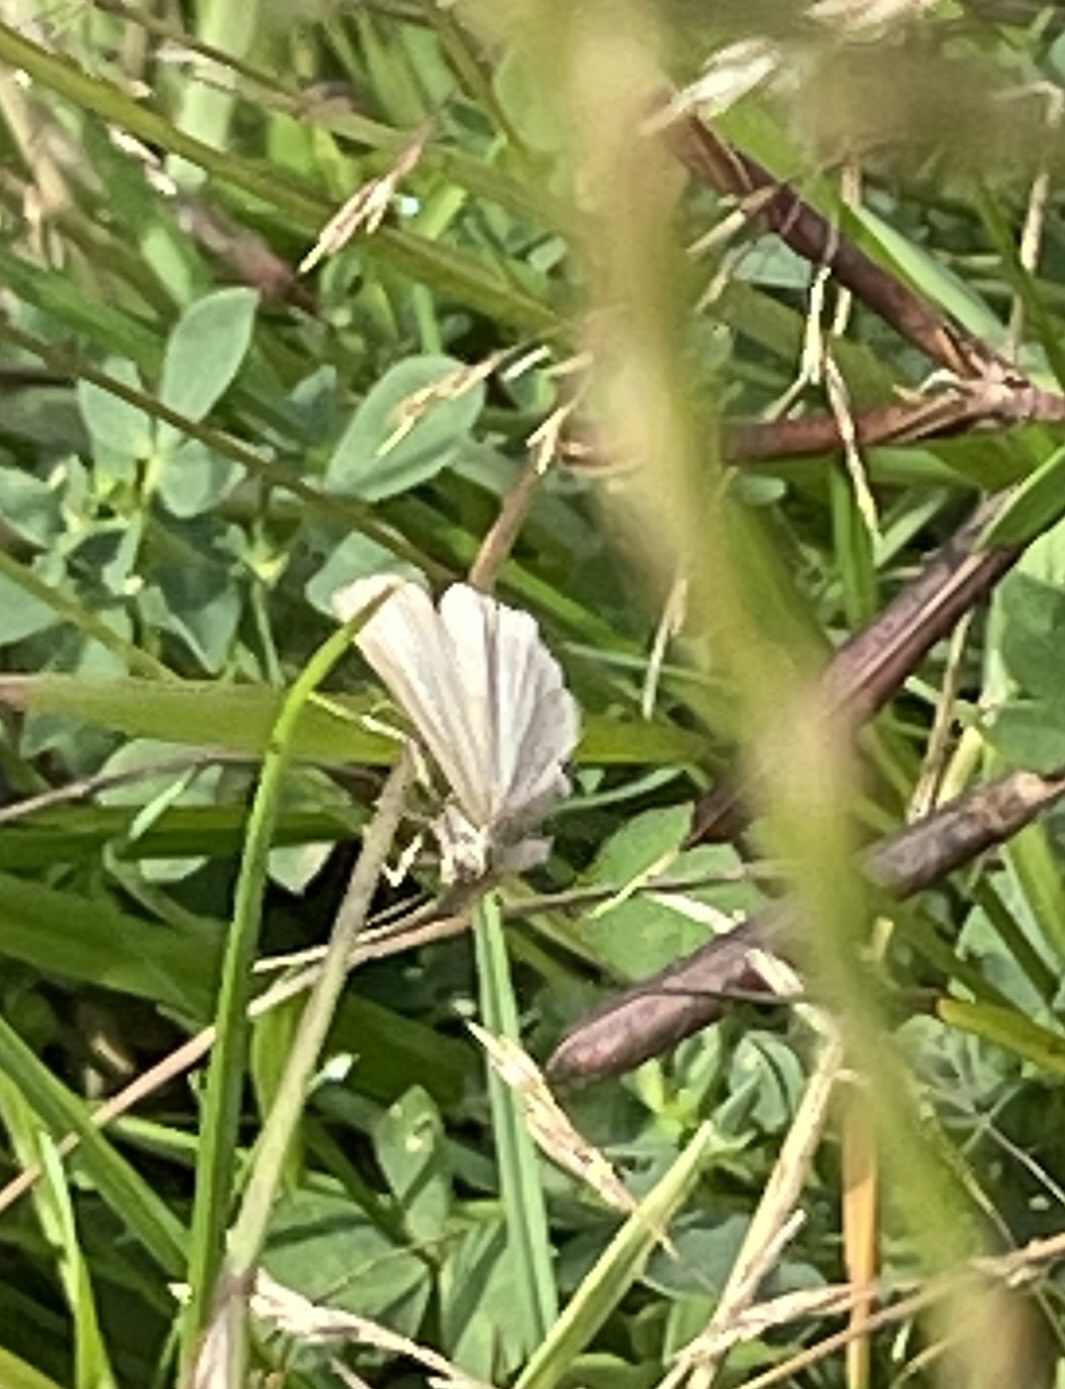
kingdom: Animalia
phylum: Arthropoda
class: Insecta
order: Lepidoptera
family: Crambidae
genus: Crambus
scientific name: Crambus perlellus
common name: Yellow satin veneer
